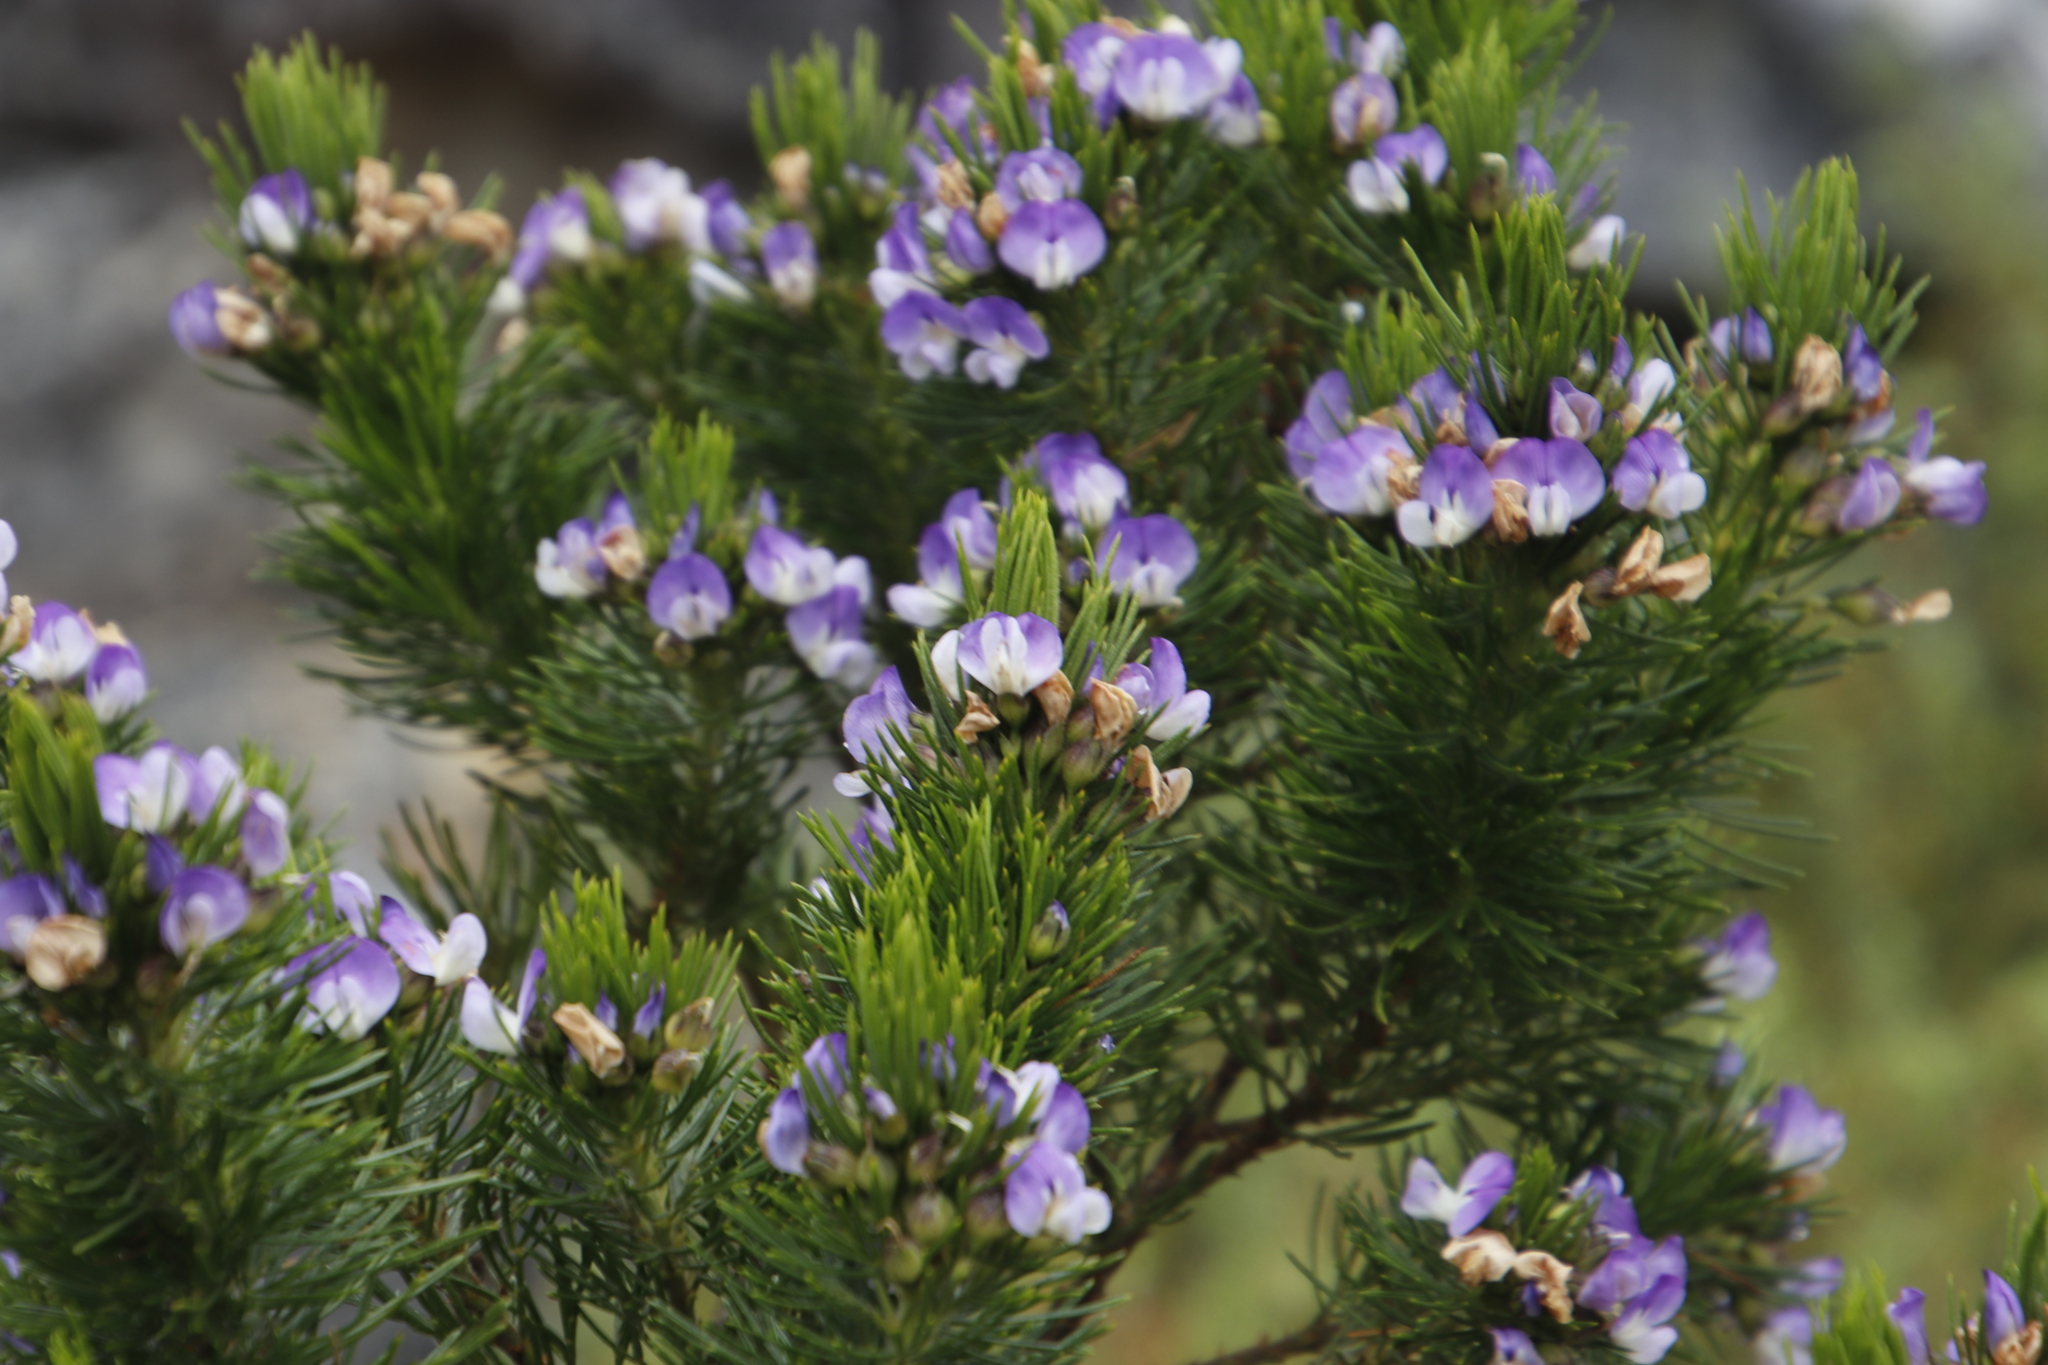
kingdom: Plantae
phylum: Tracheophyta
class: Magnoliopsida
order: Fabales
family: Fabaceae
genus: Psoralea
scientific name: Psoralea pinnata
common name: African scurfpea
